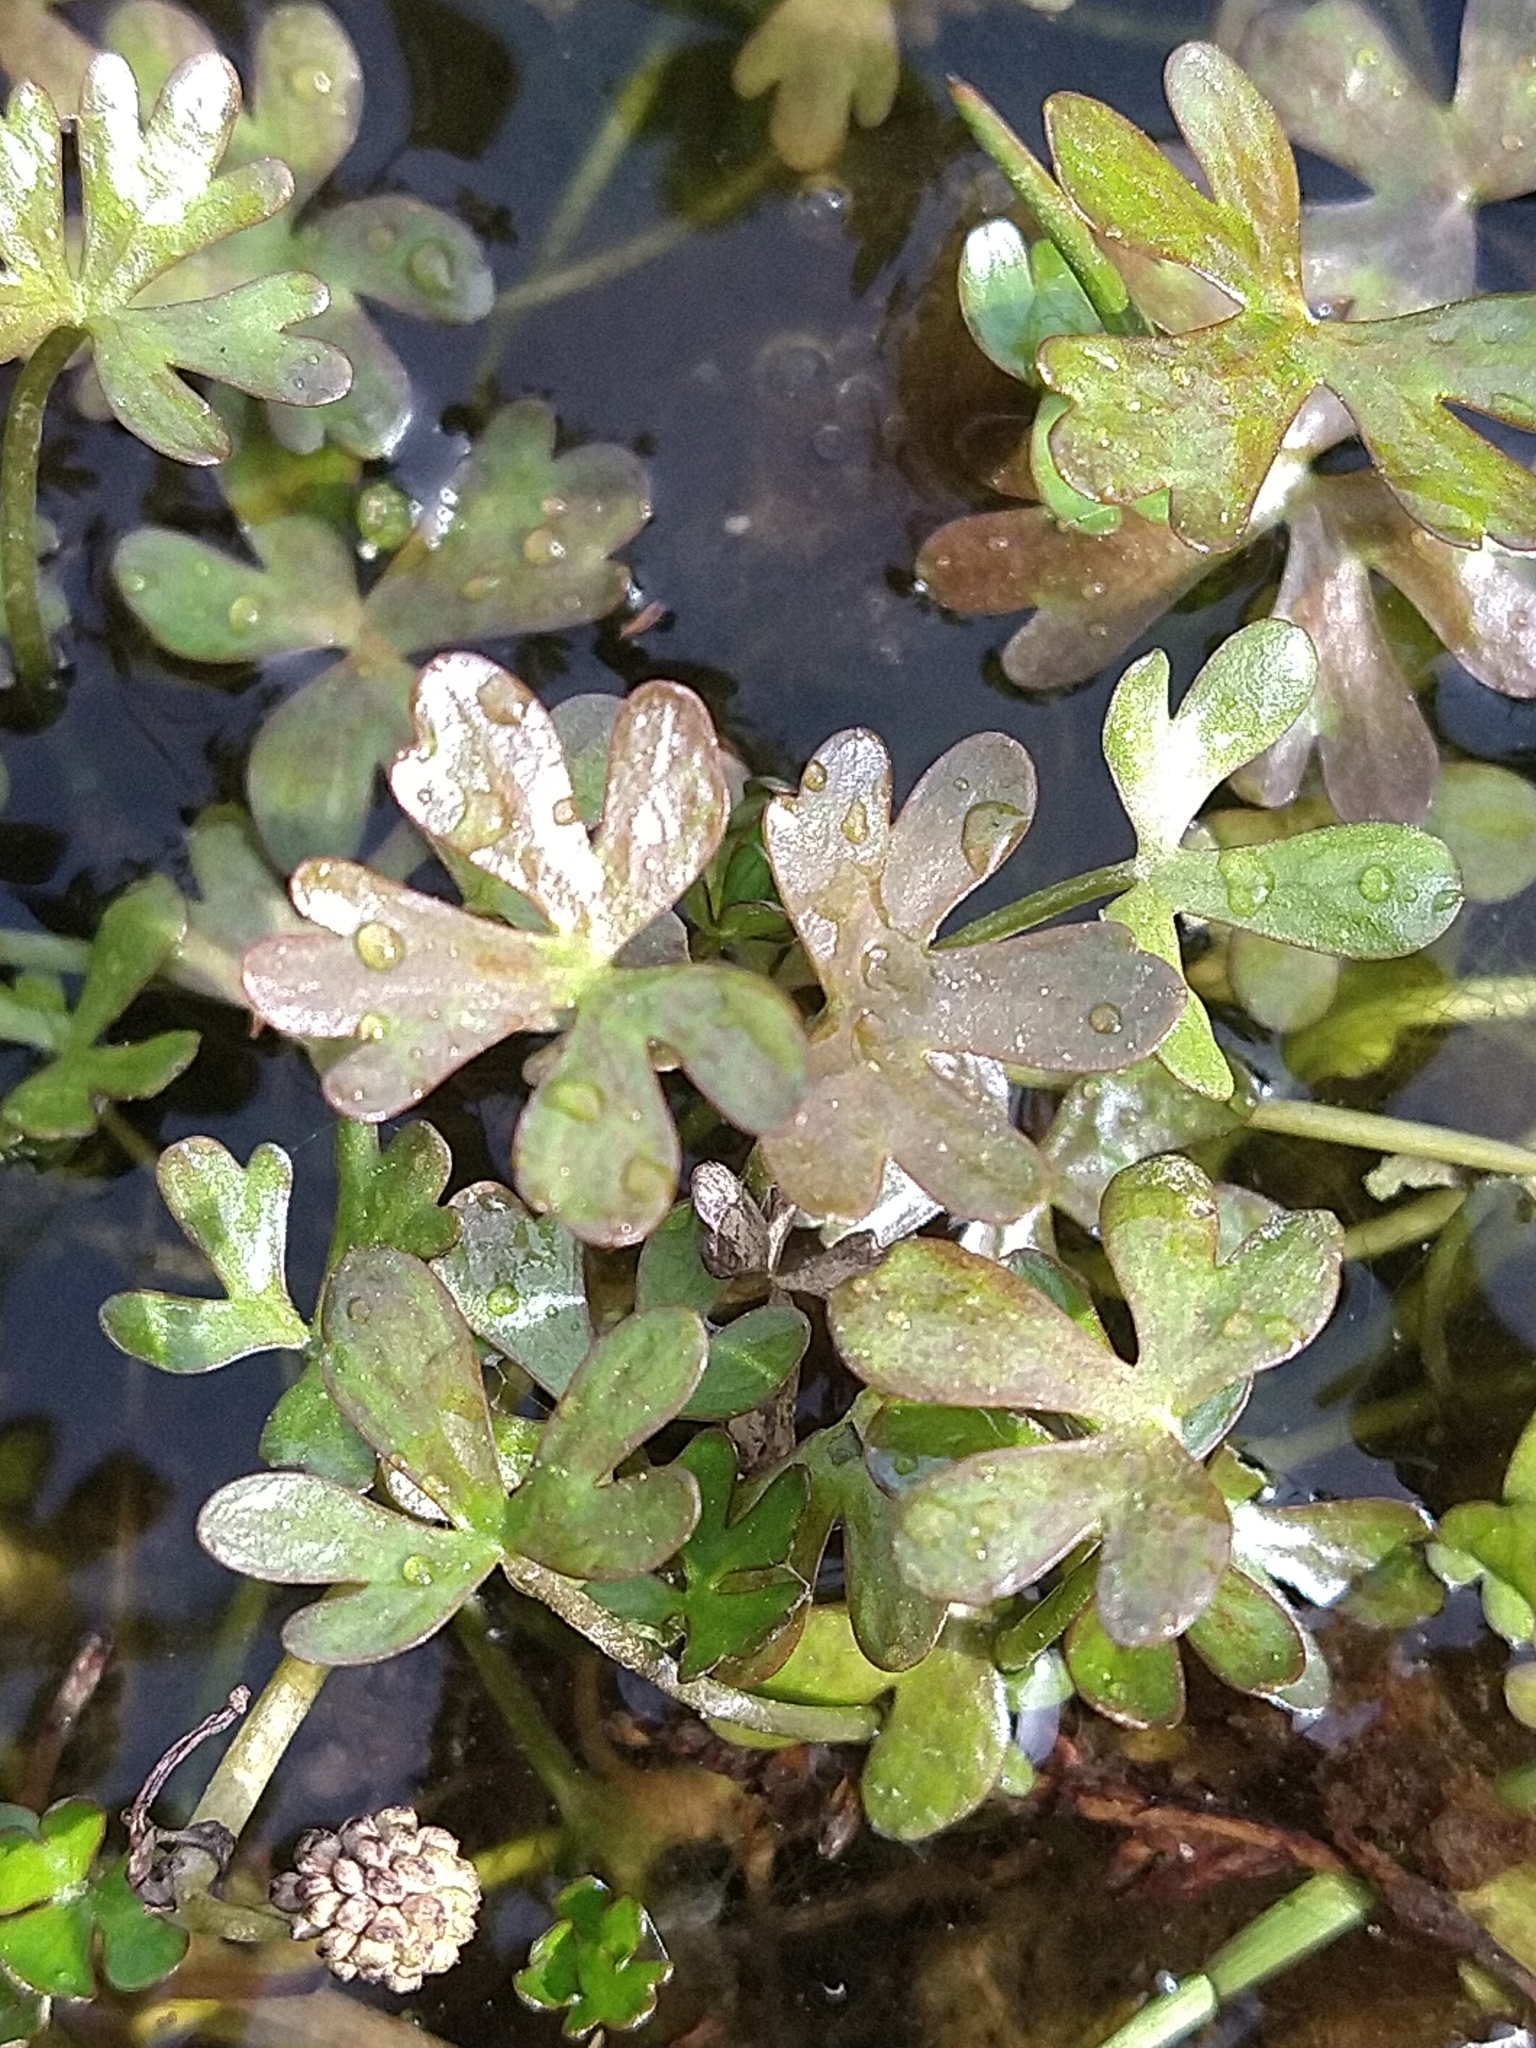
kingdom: Plantae
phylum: Tracheophyta
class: Magnoliopsida
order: Ranunculales
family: Ranunculaceae
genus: Ranunculus
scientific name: Ranunculus fuegianus
